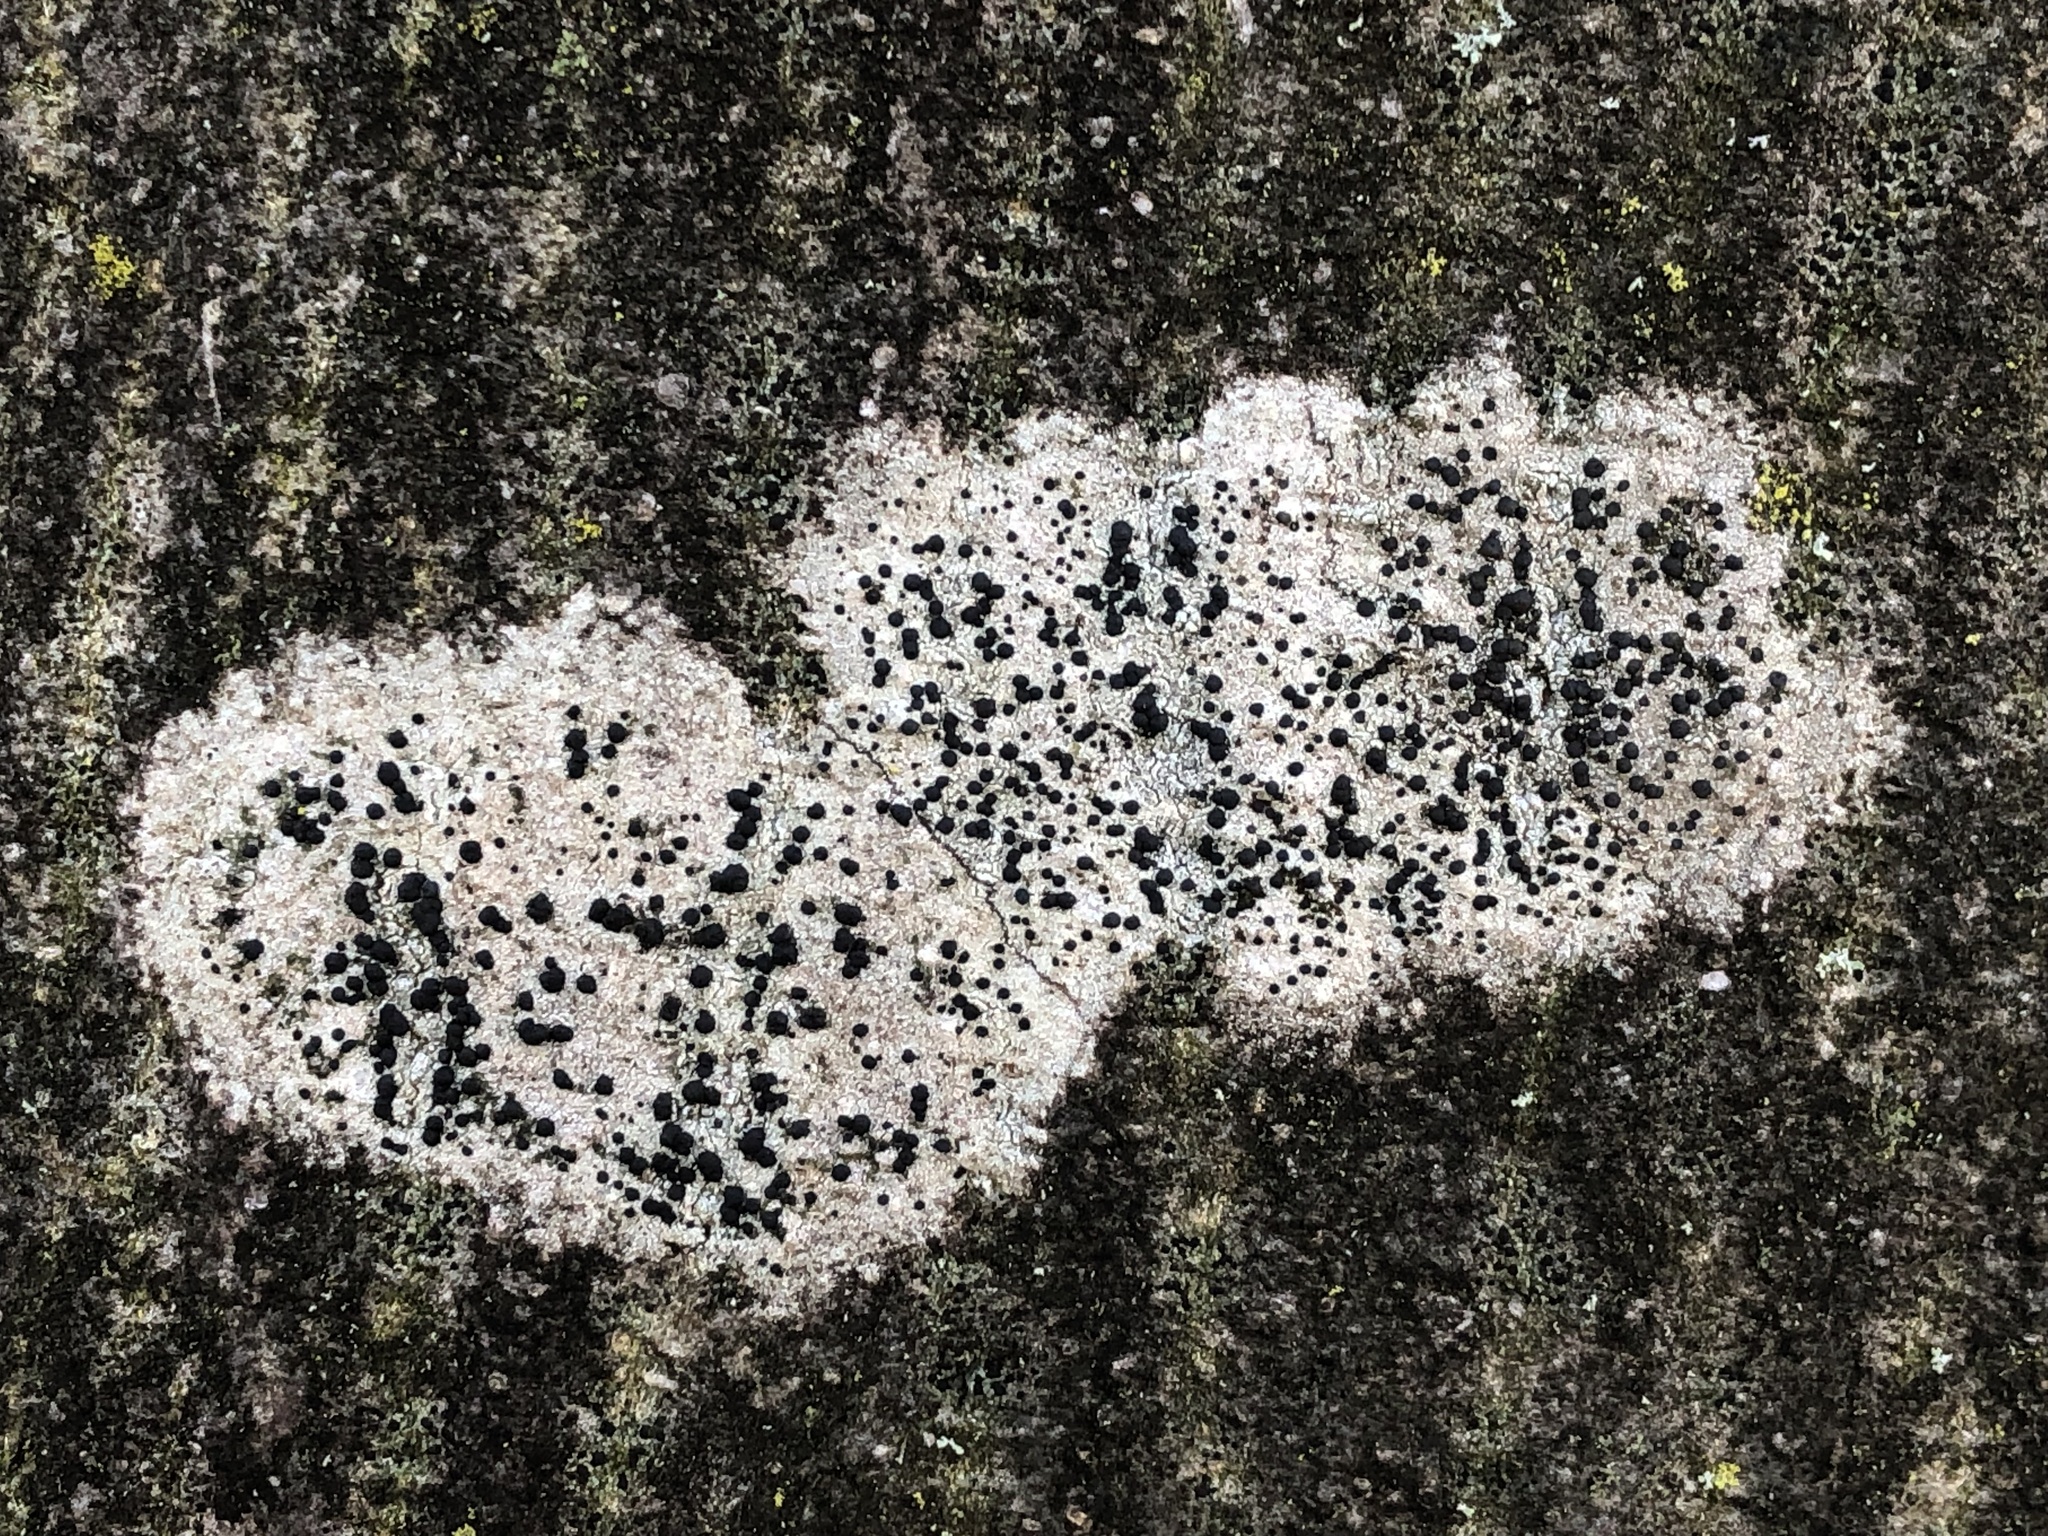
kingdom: Fungi
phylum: Ascomycota
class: Lecanoromycetes
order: Lecanorales
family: Lecanoraceae
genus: Lecidella
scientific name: Lecidella elaeochroma
